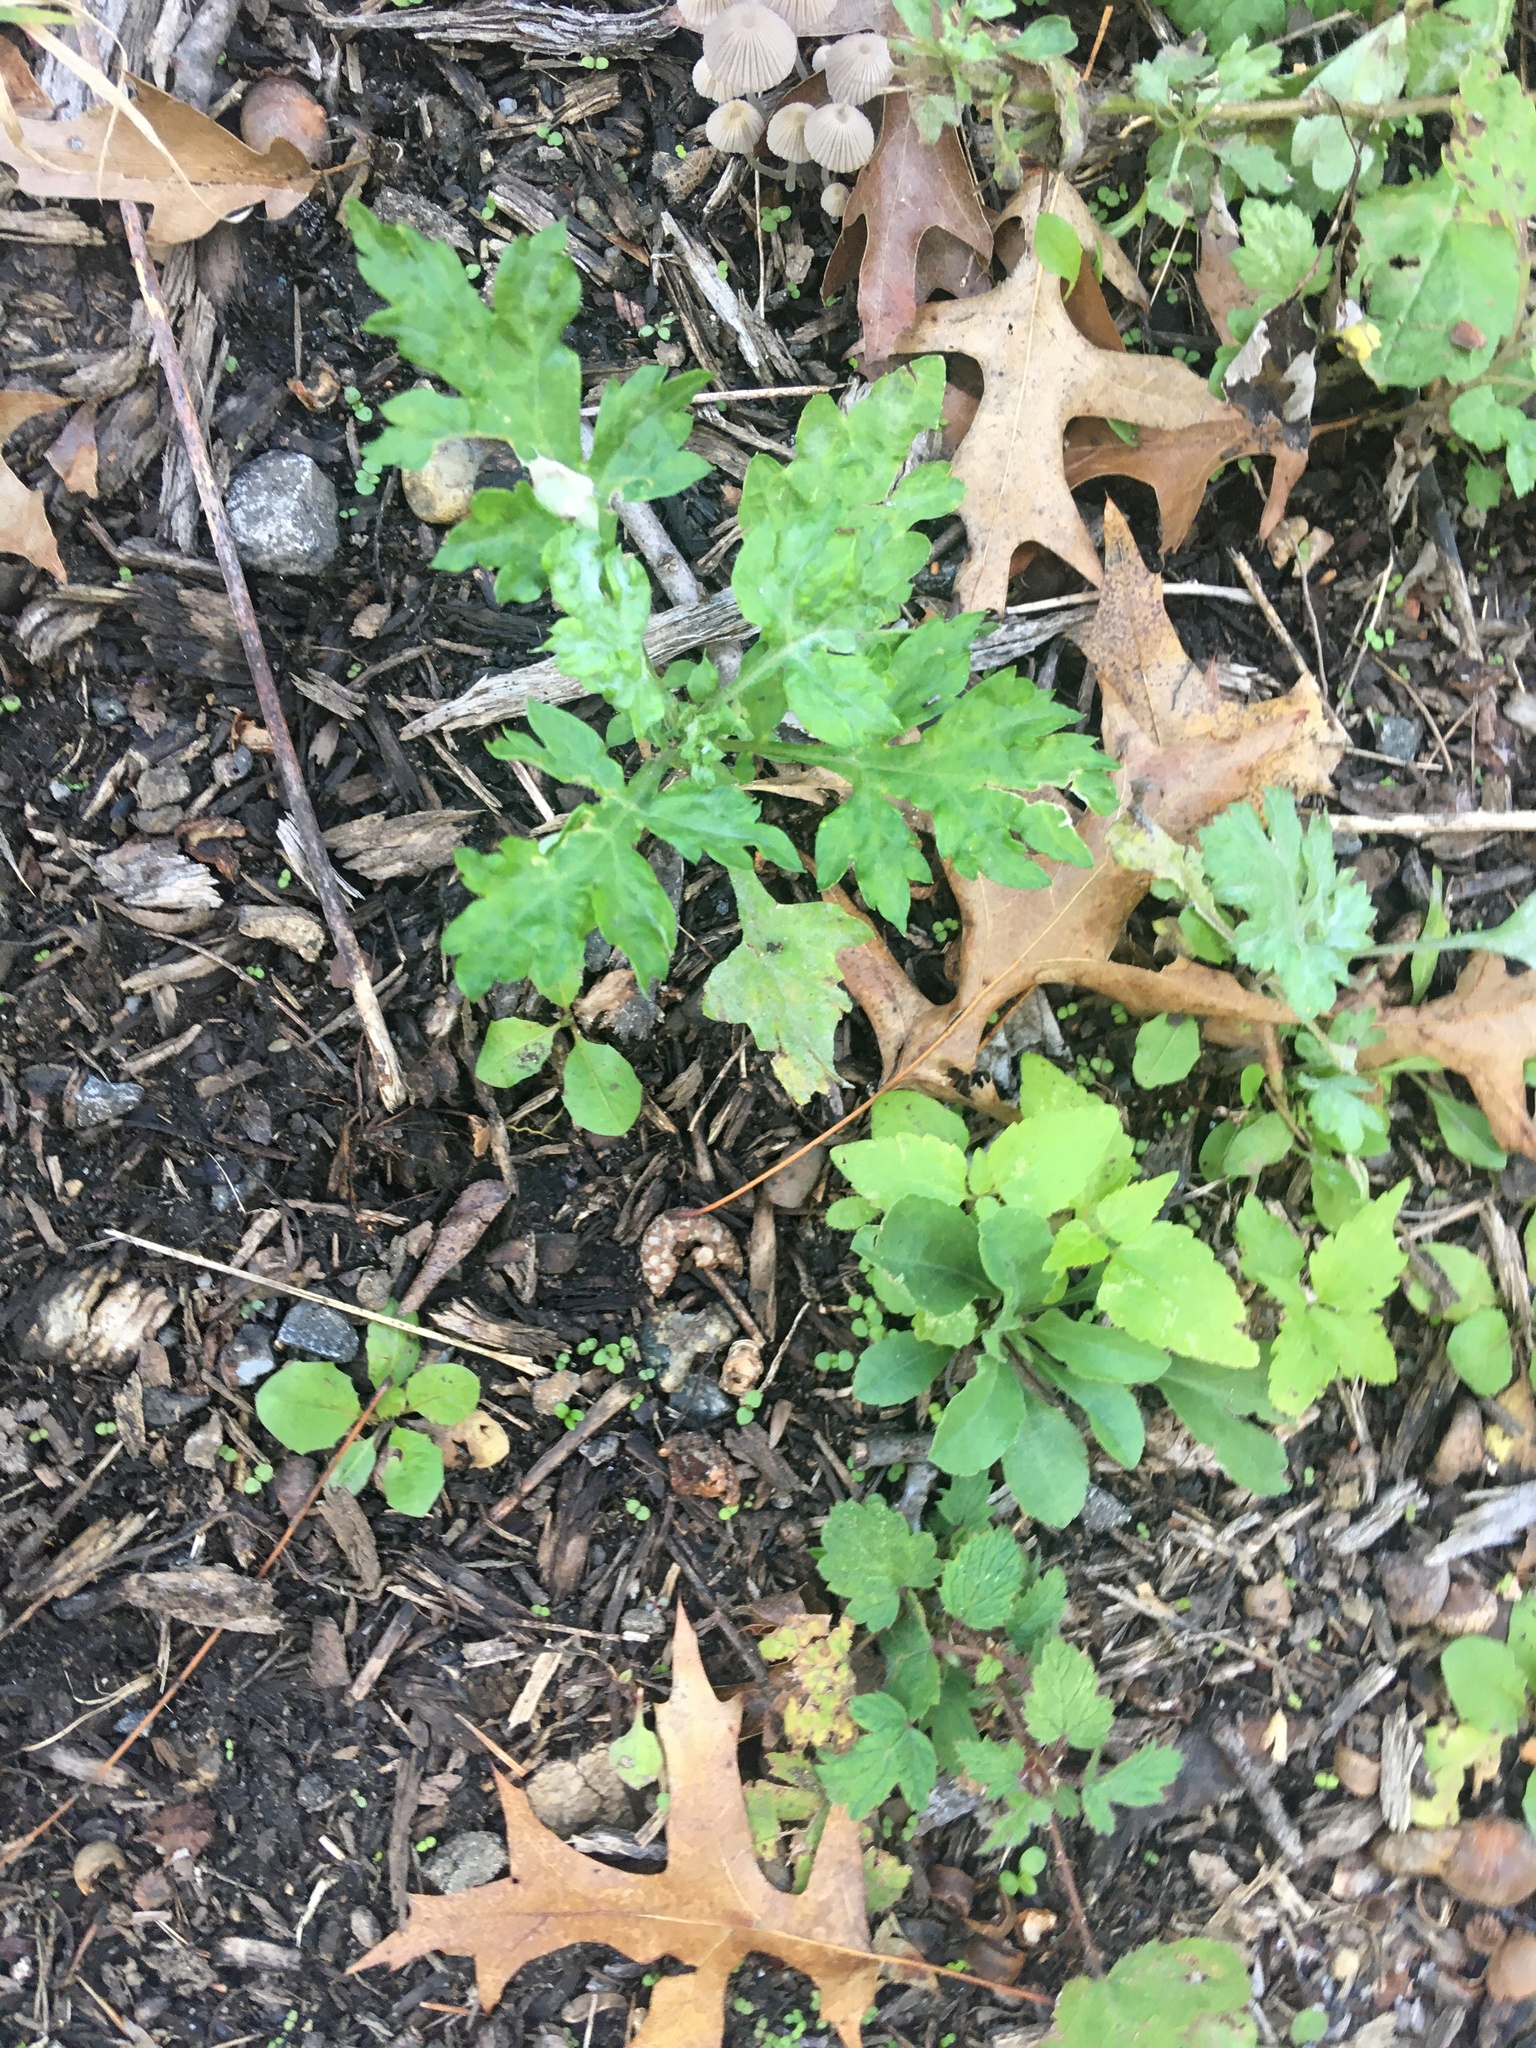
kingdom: Plantae
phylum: Tracheophyta
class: Magnoliopsida
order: Asterales
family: Asteraceae
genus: Artemisia
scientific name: Artemisia vulgaris
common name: Mugwort
